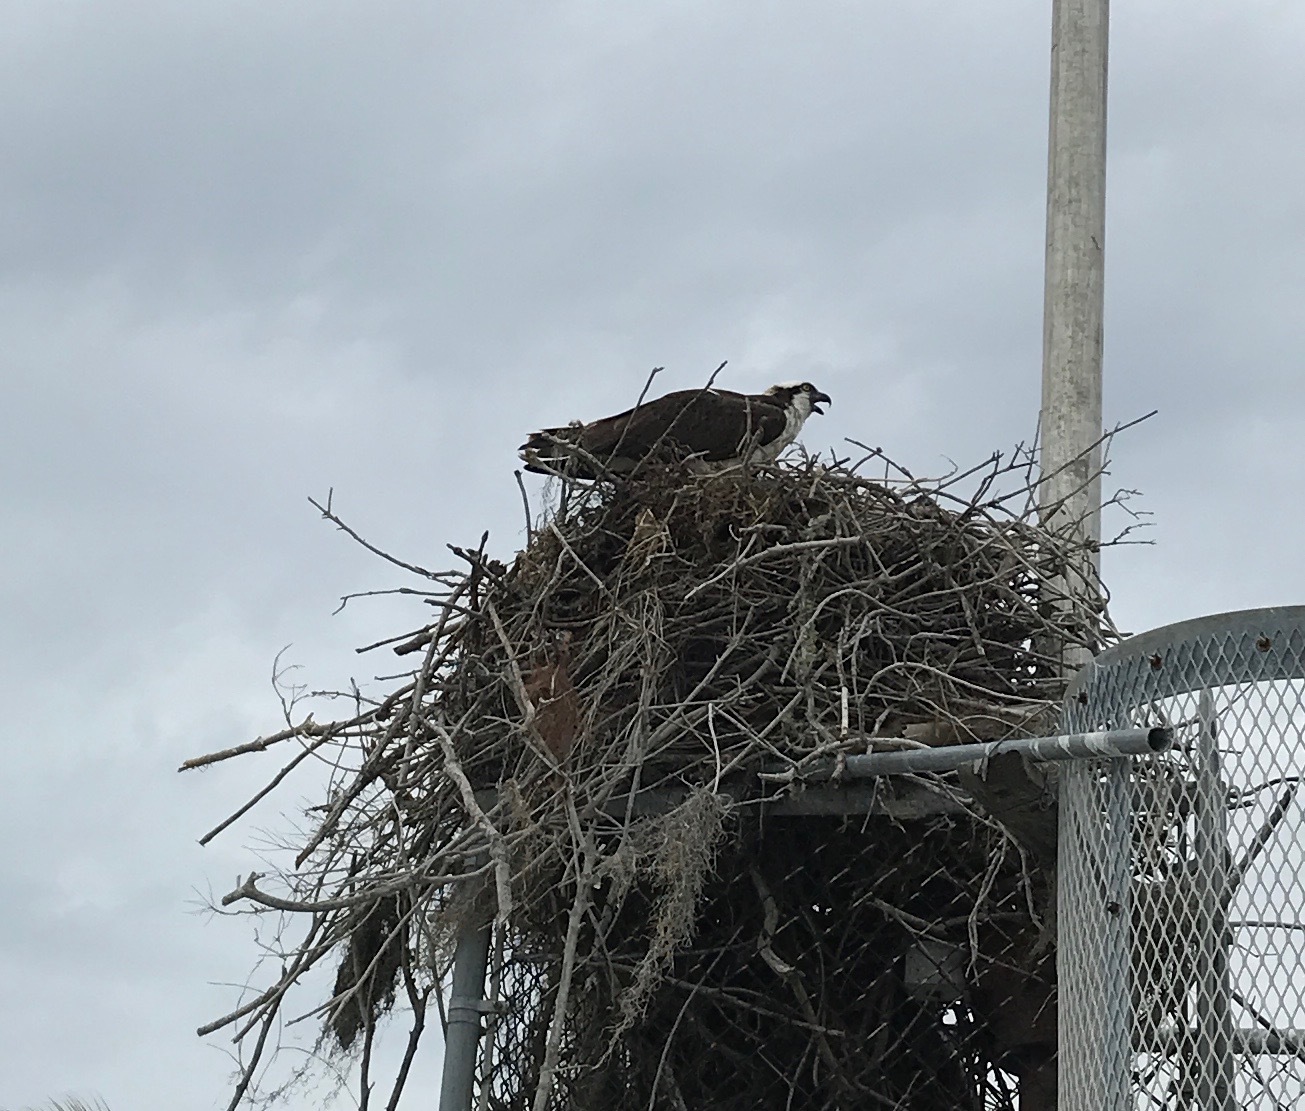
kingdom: Animalia
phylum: Chordata
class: Aves
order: Accipitriformes
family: Pandionidae
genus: Pandion
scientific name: Pandion haliaetus
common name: Osprey
